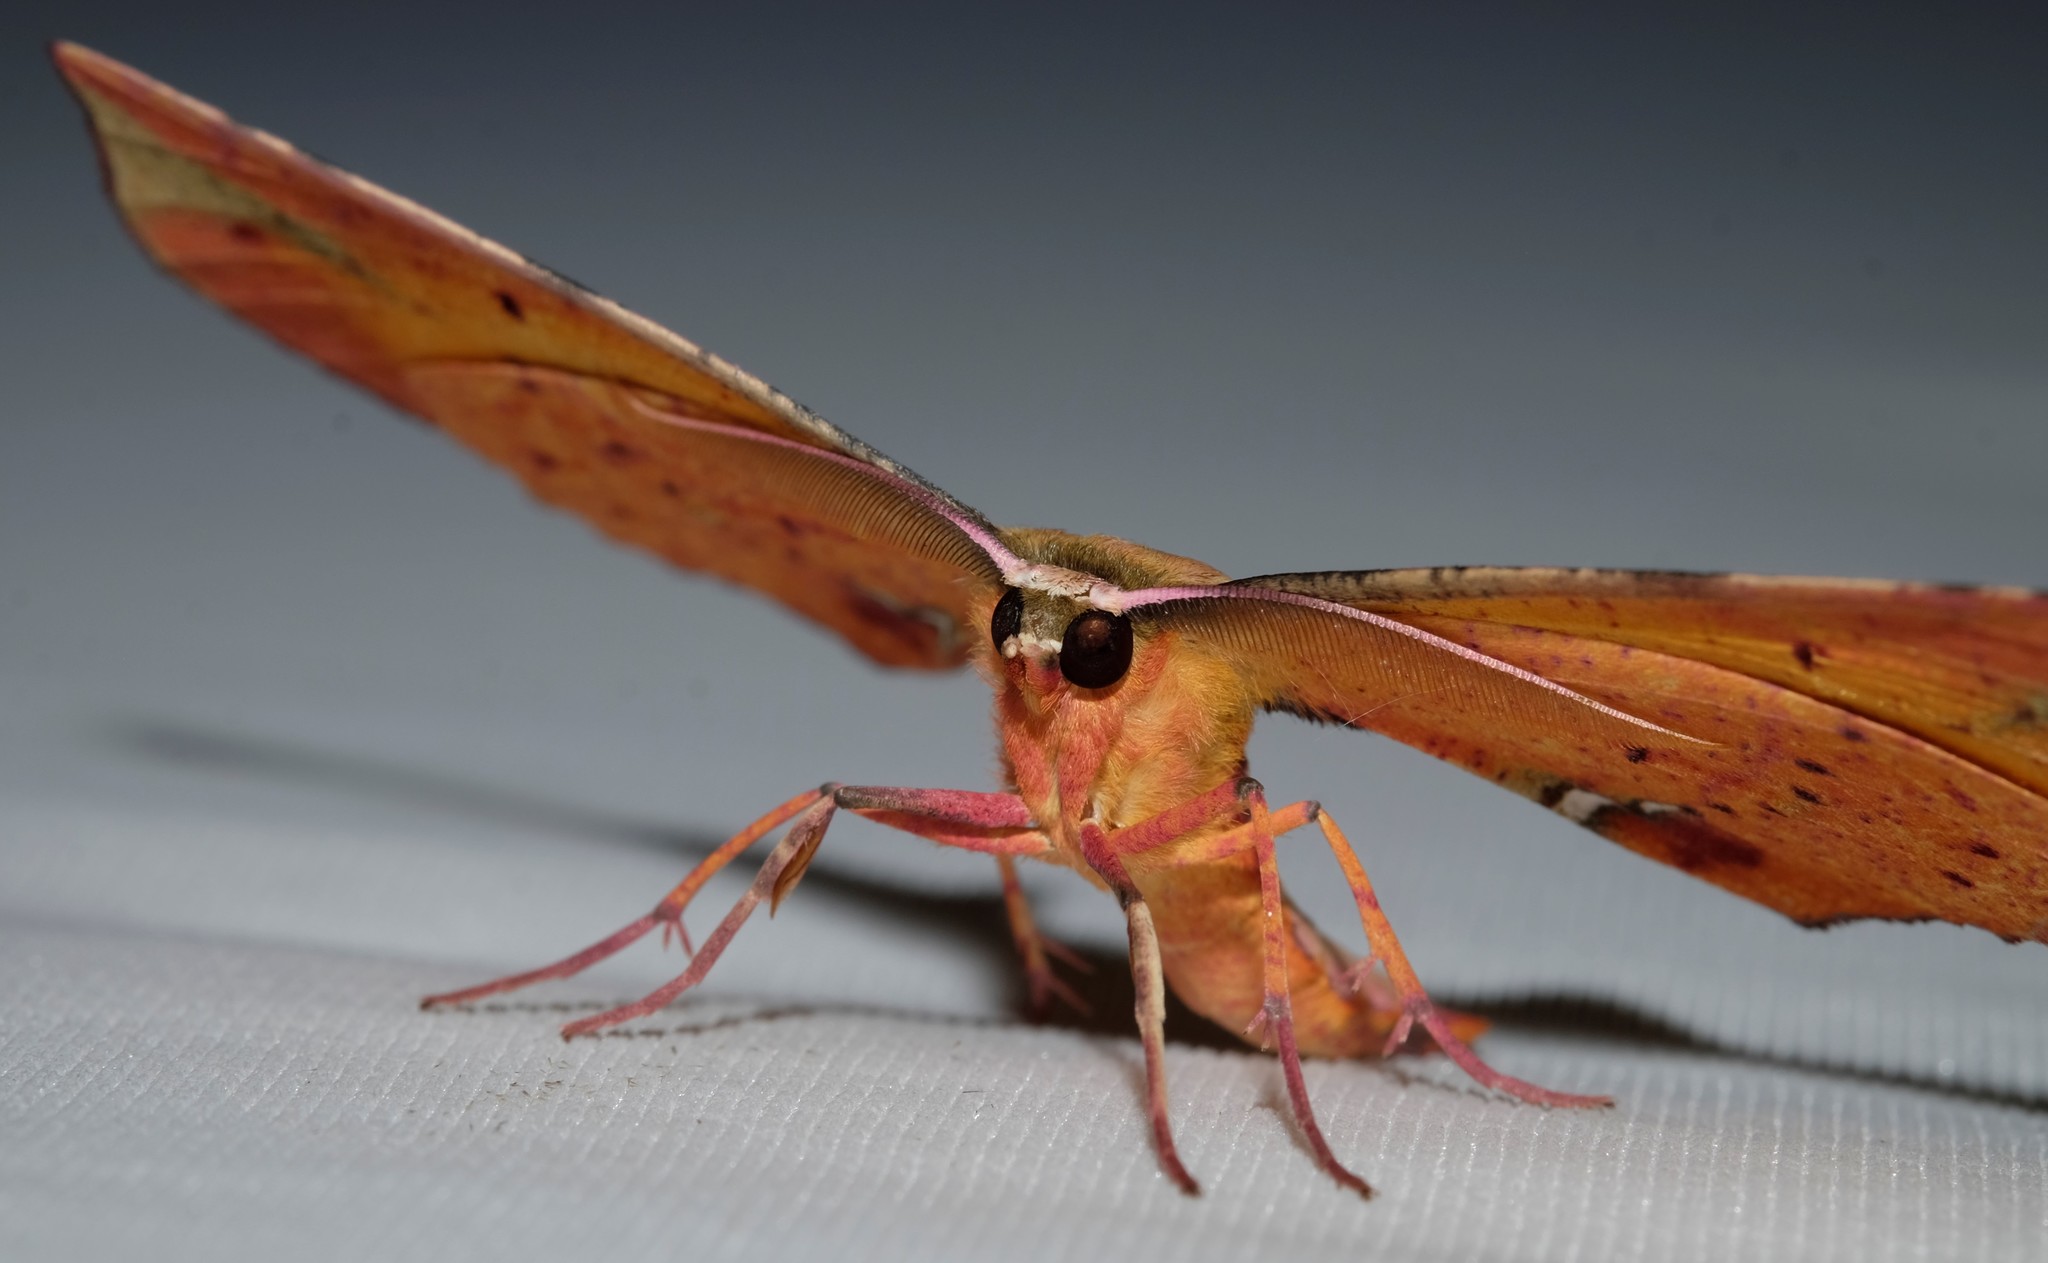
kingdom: Animalia
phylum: Arthropoda
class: Insecta
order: Lepidoptera
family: Geometridae
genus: Parepisparis
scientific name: Parepisparis lutosaria
